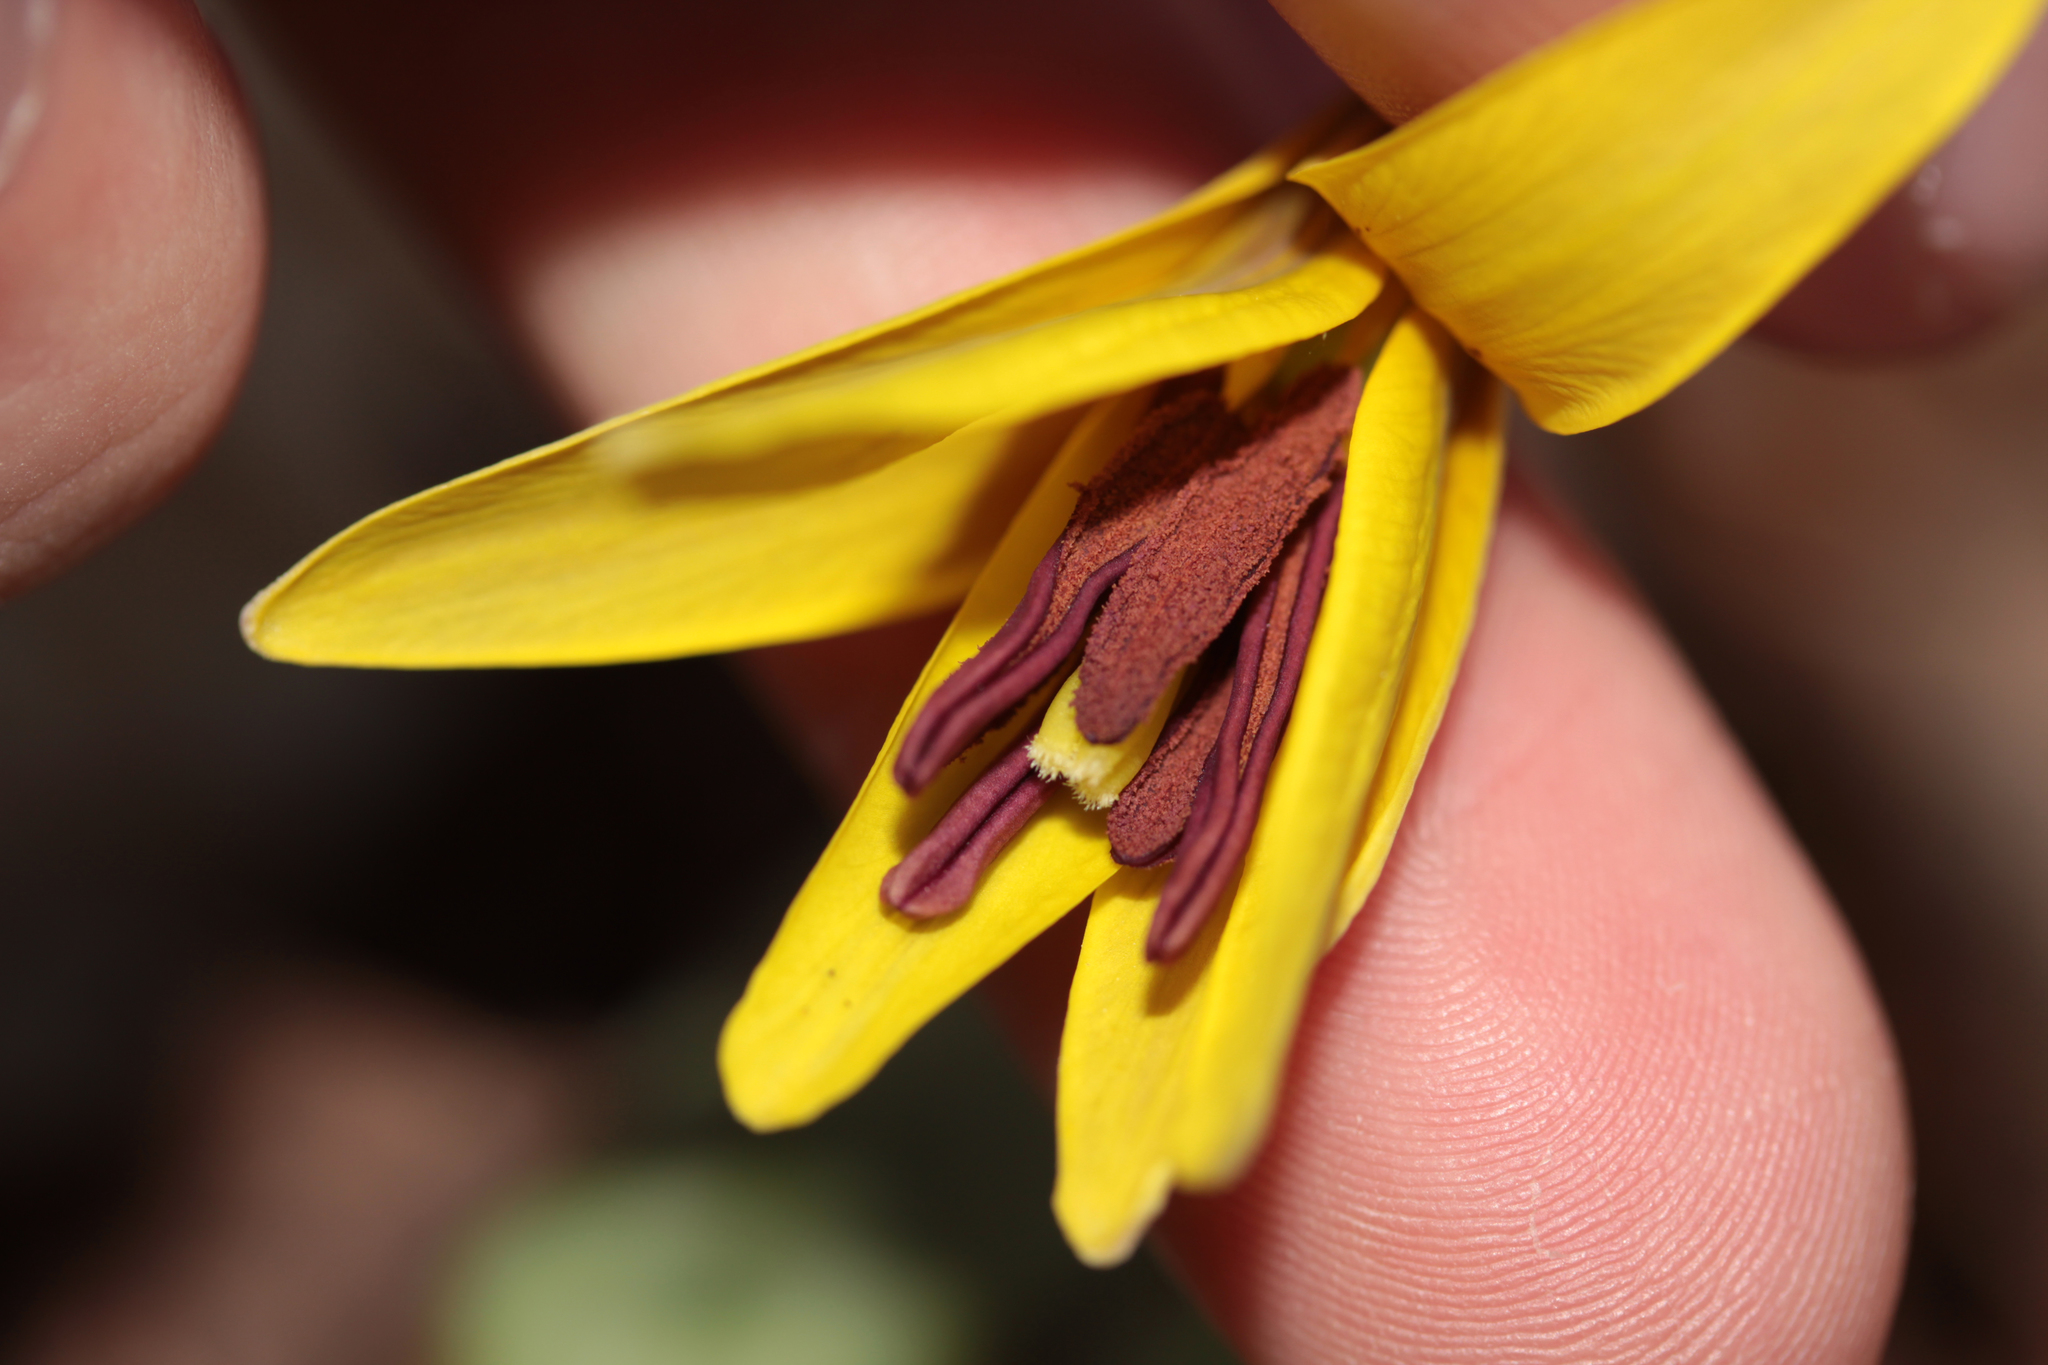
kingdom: Plantae
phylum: Tracheophyta
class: Liliopsida
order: Liliales
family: Liliaceae
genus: Erythronium
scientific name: Erythronium americanum
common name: Yellow adder's-tongue
